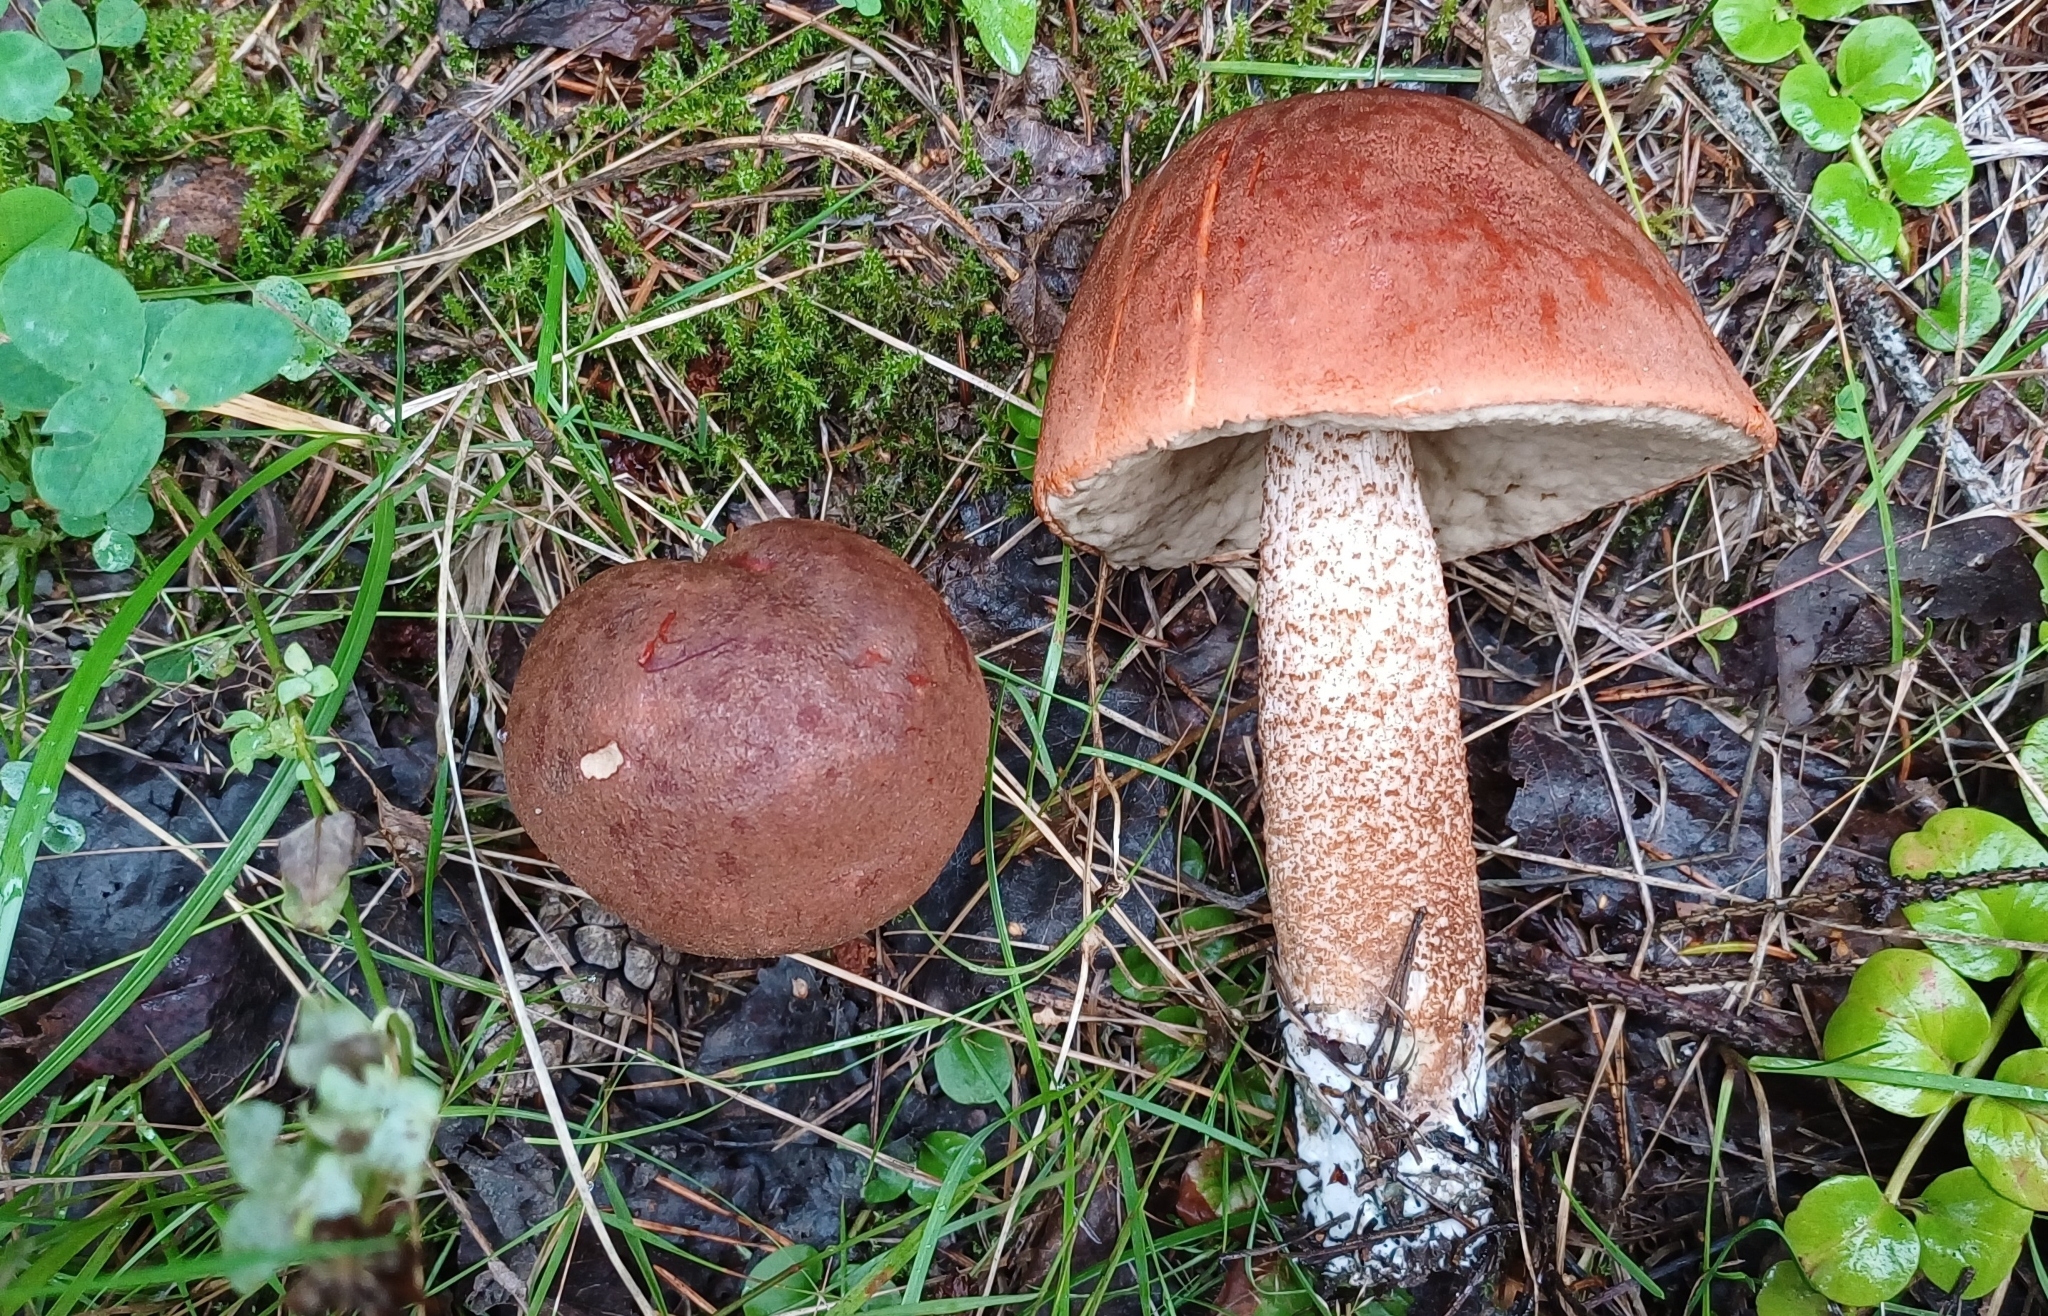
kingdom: Fungi
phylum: Basidiomycota
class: Agaricomycetes
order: Boletales
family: Boletaceae
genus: Leccinum
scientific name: Leccinum aurantiacum
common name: Orange bolete
